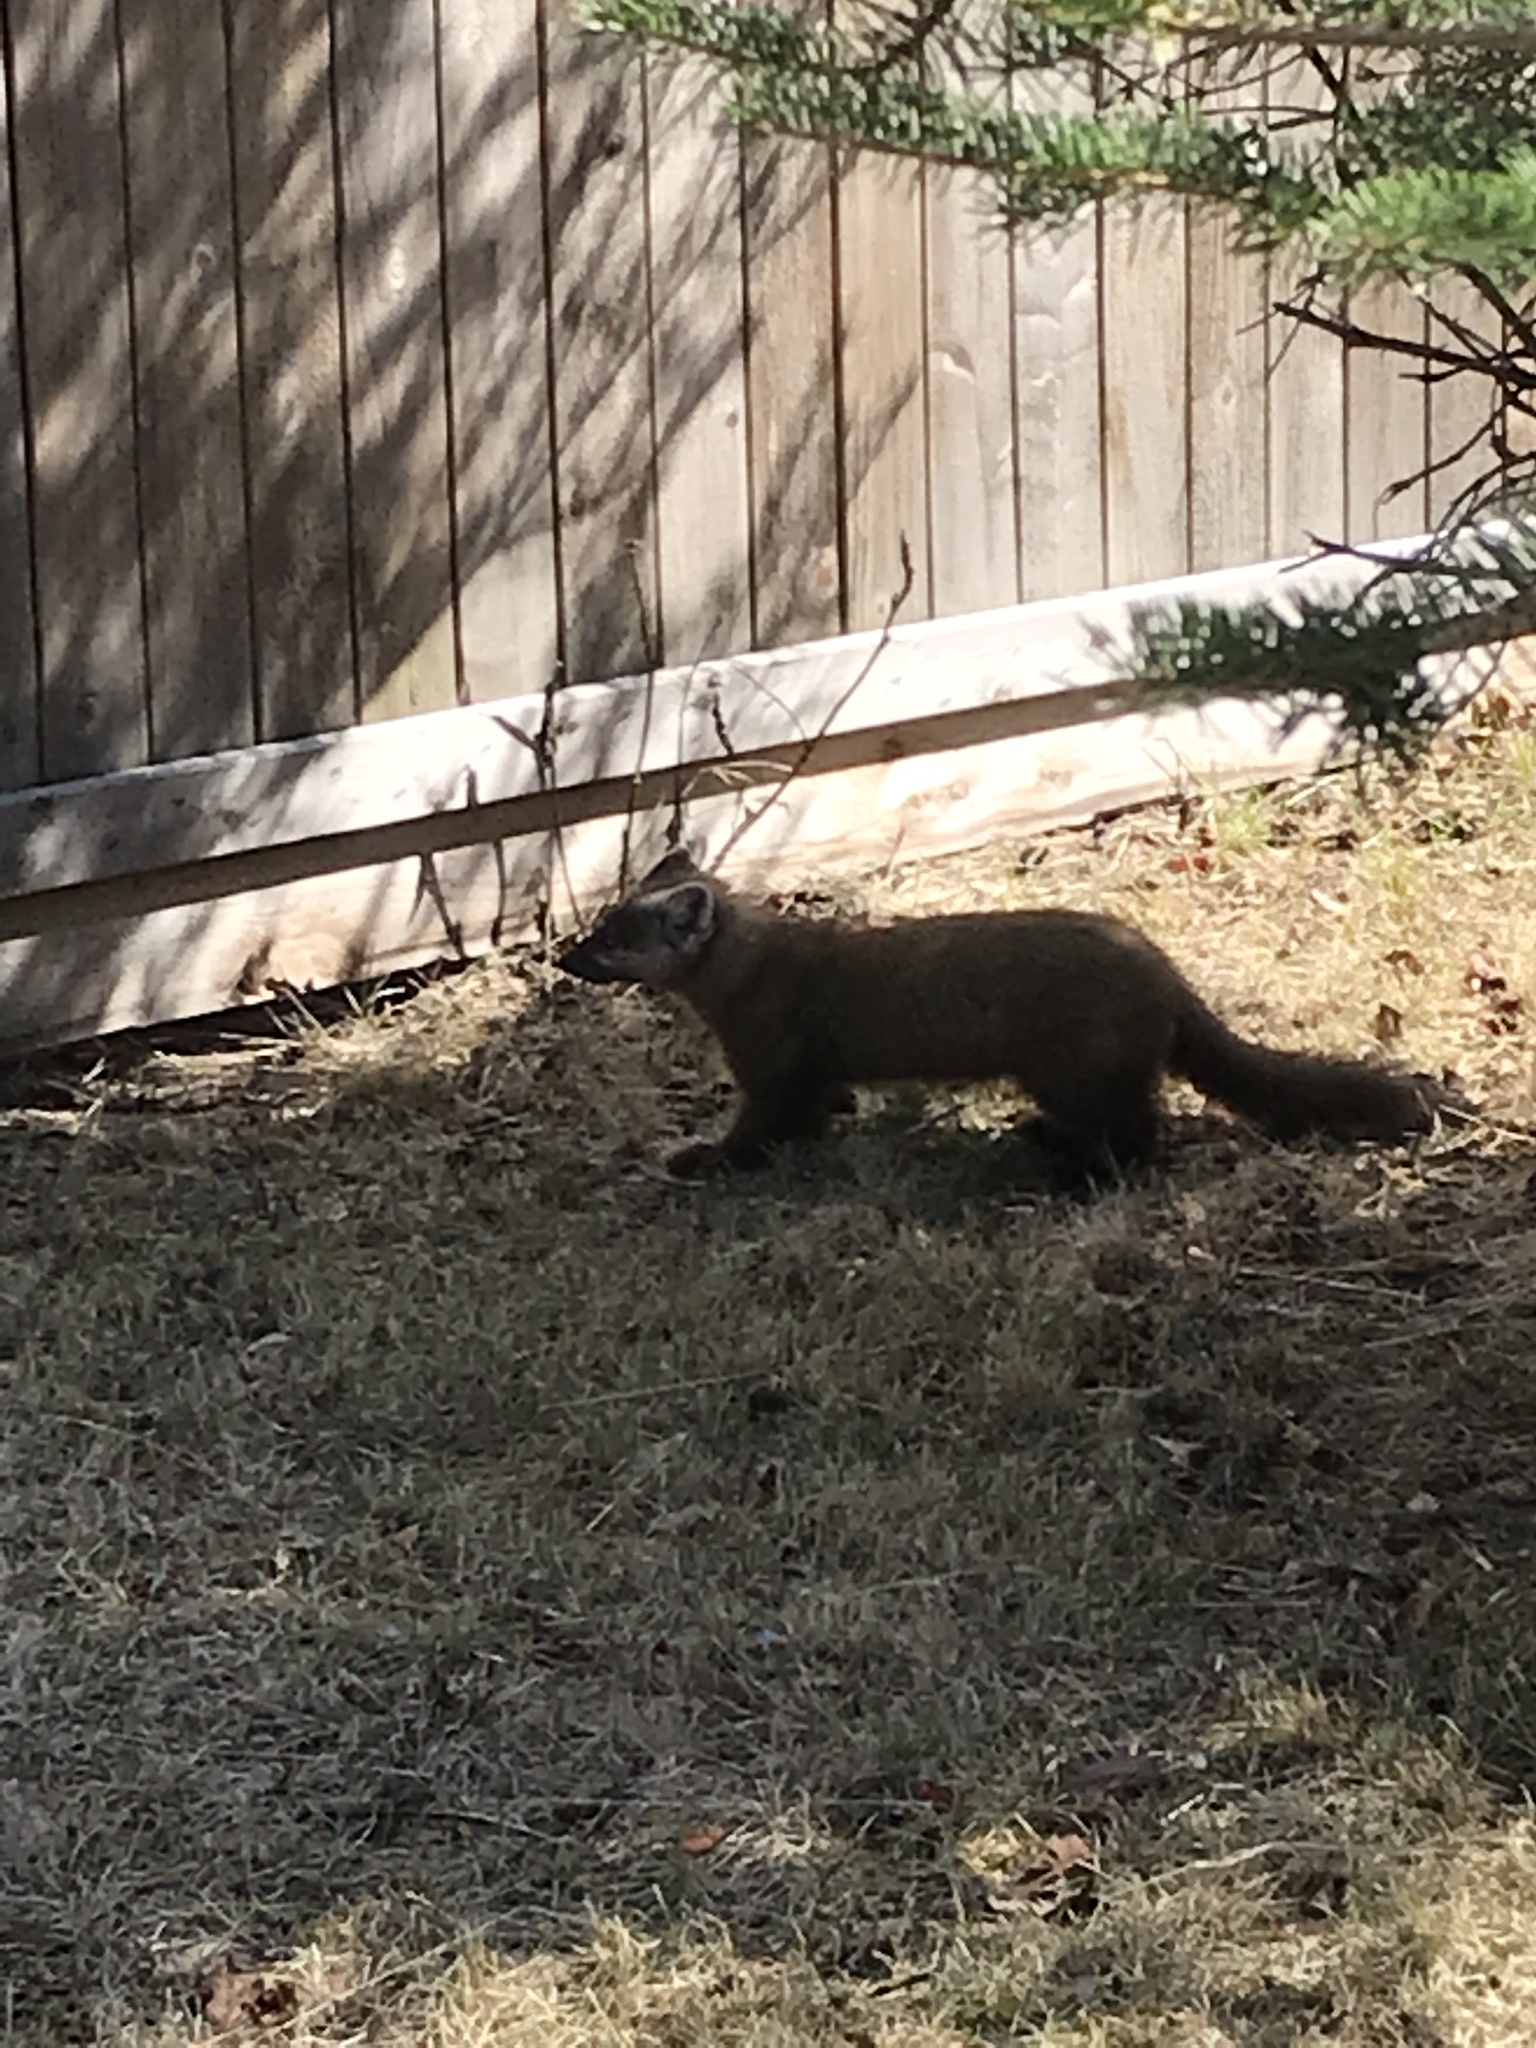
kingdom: Animalia
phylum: Chordata
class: Mammalia
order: Carnivora
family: Mustelidae
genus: Martes
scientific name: Martes americana
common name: American marten
